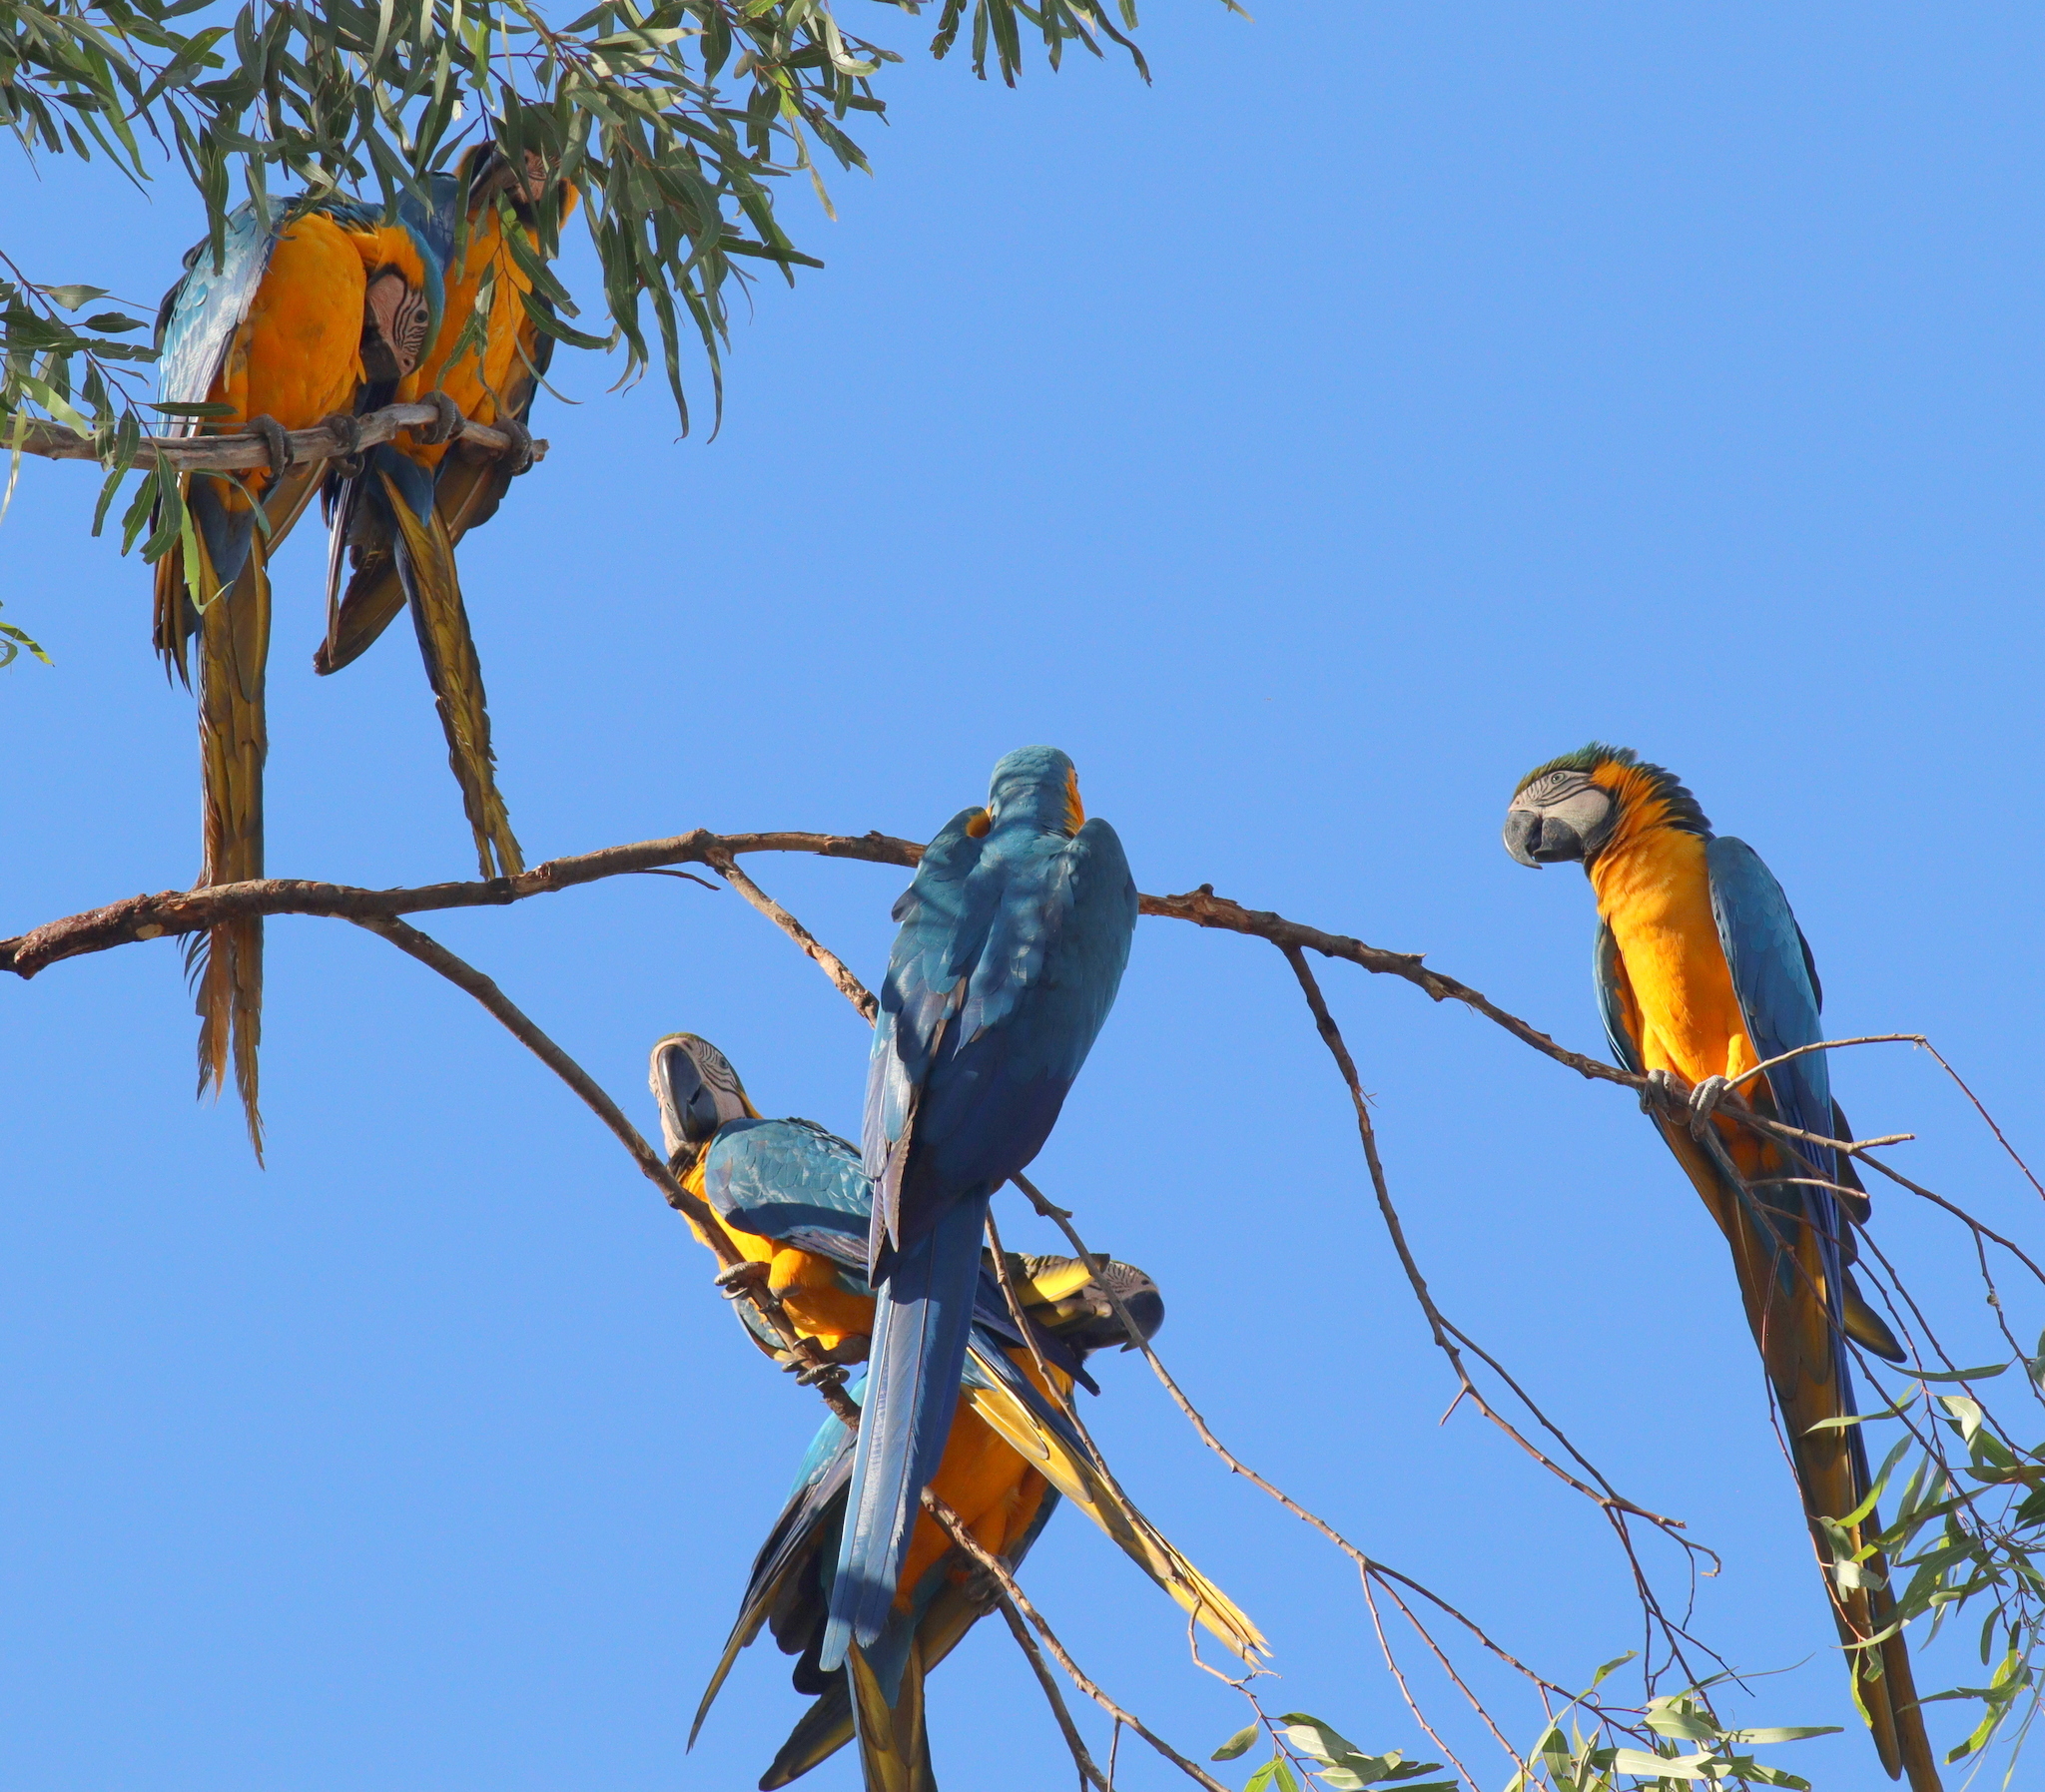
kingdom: Animalia
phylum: Chordata
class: Aves
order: Psittaciformes
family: Psittacidae
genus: Ara
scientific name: Ara ararauna
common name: Blue-and-yellow macaw
